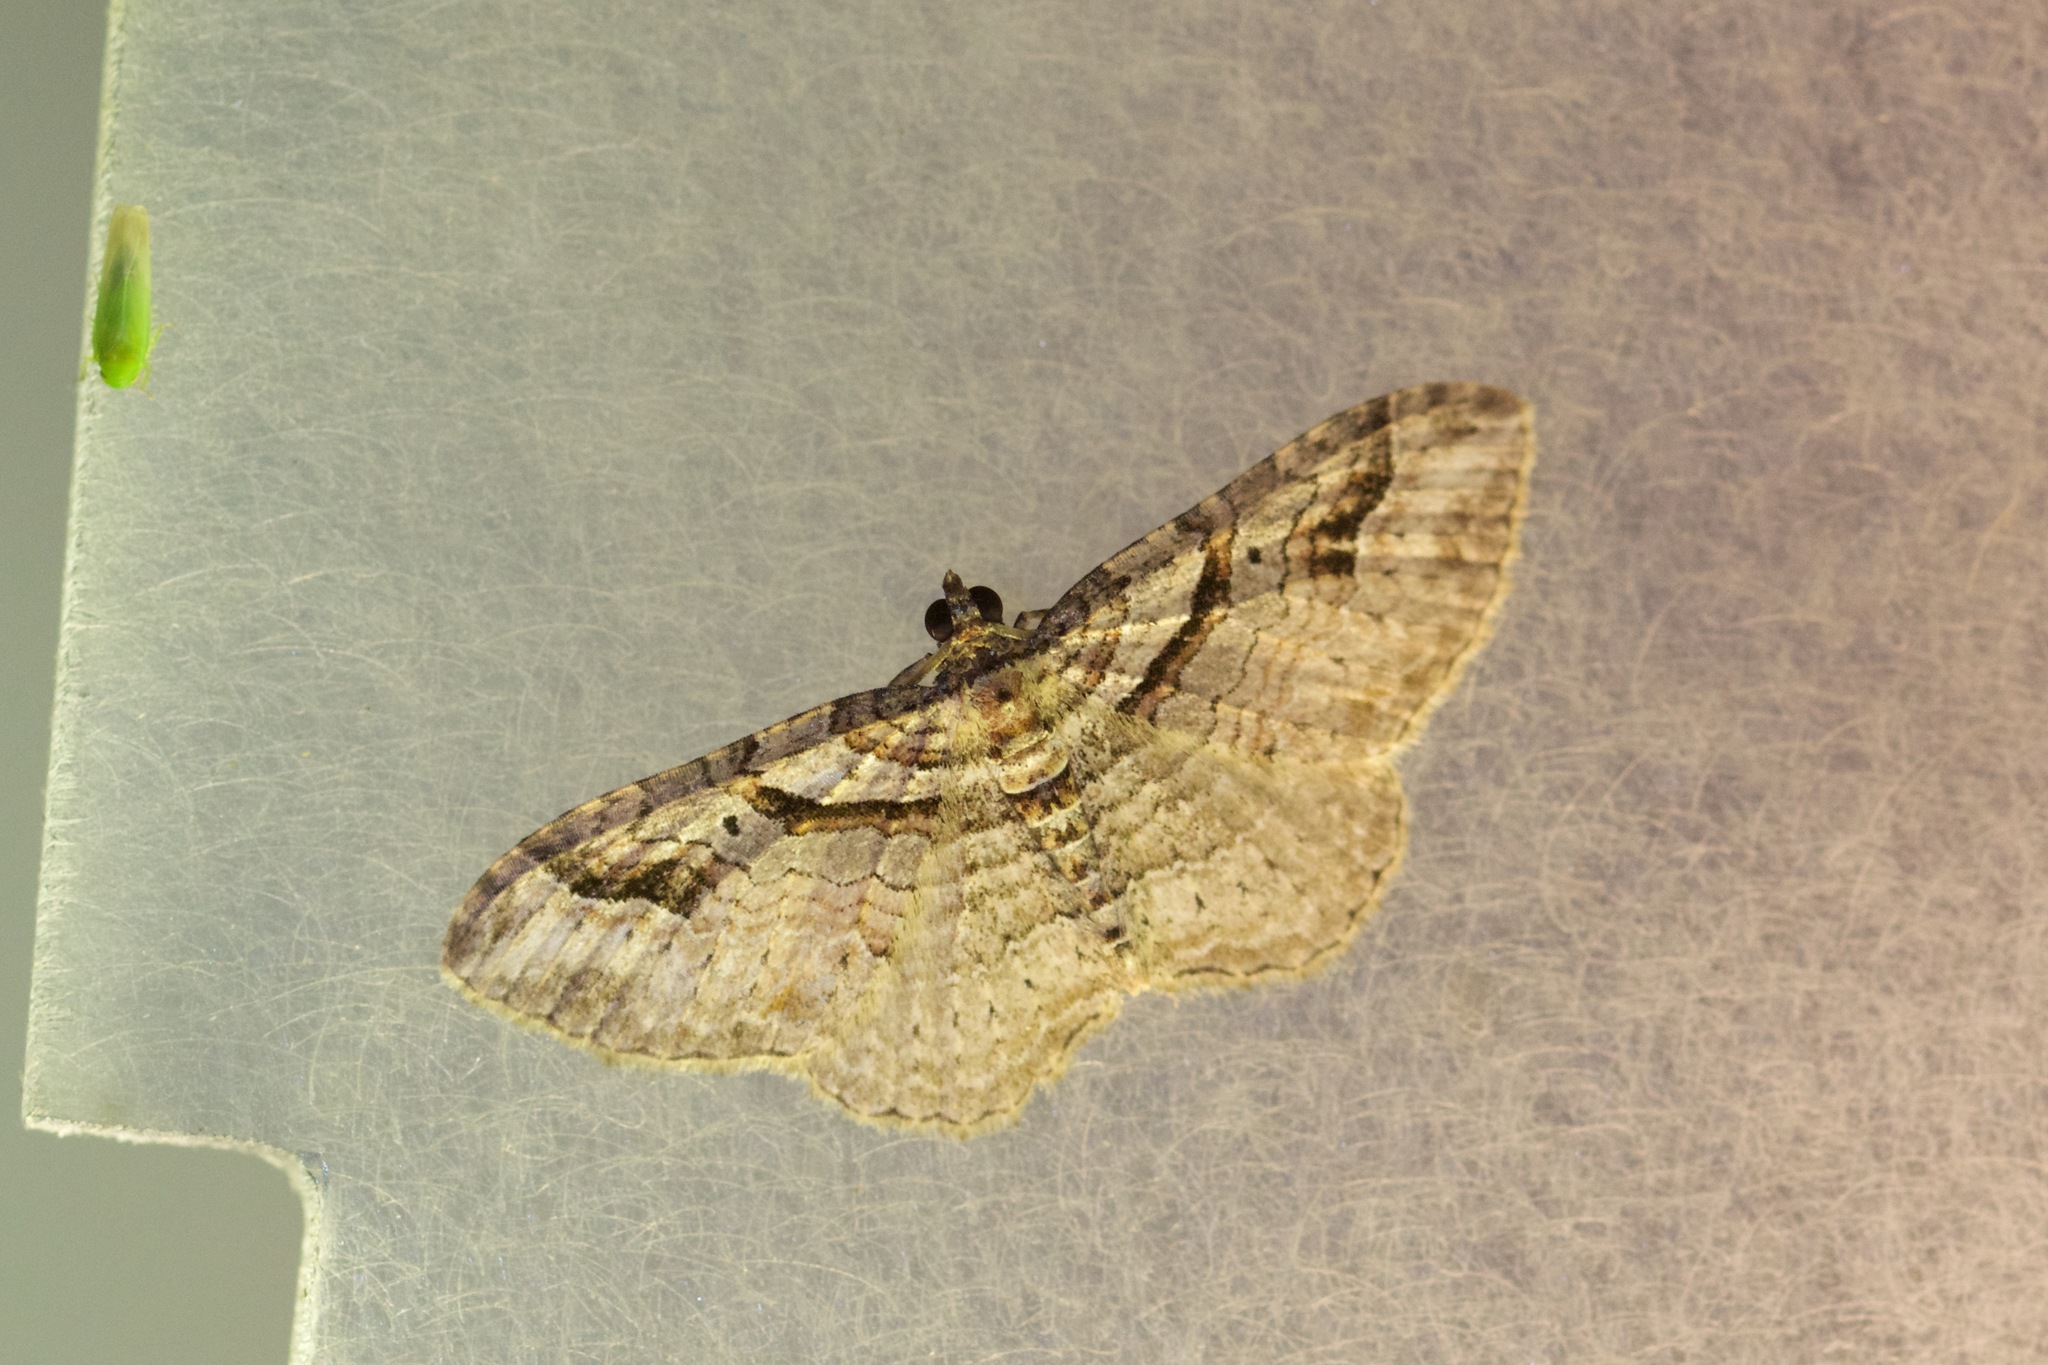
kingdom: Animalia
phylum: Arthropoda
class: Insecta
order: Lepidoptera
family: Geometridae
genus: Costaconvexa
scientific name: Costaconvexa centrostrigaria
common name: Bent-line carpet
